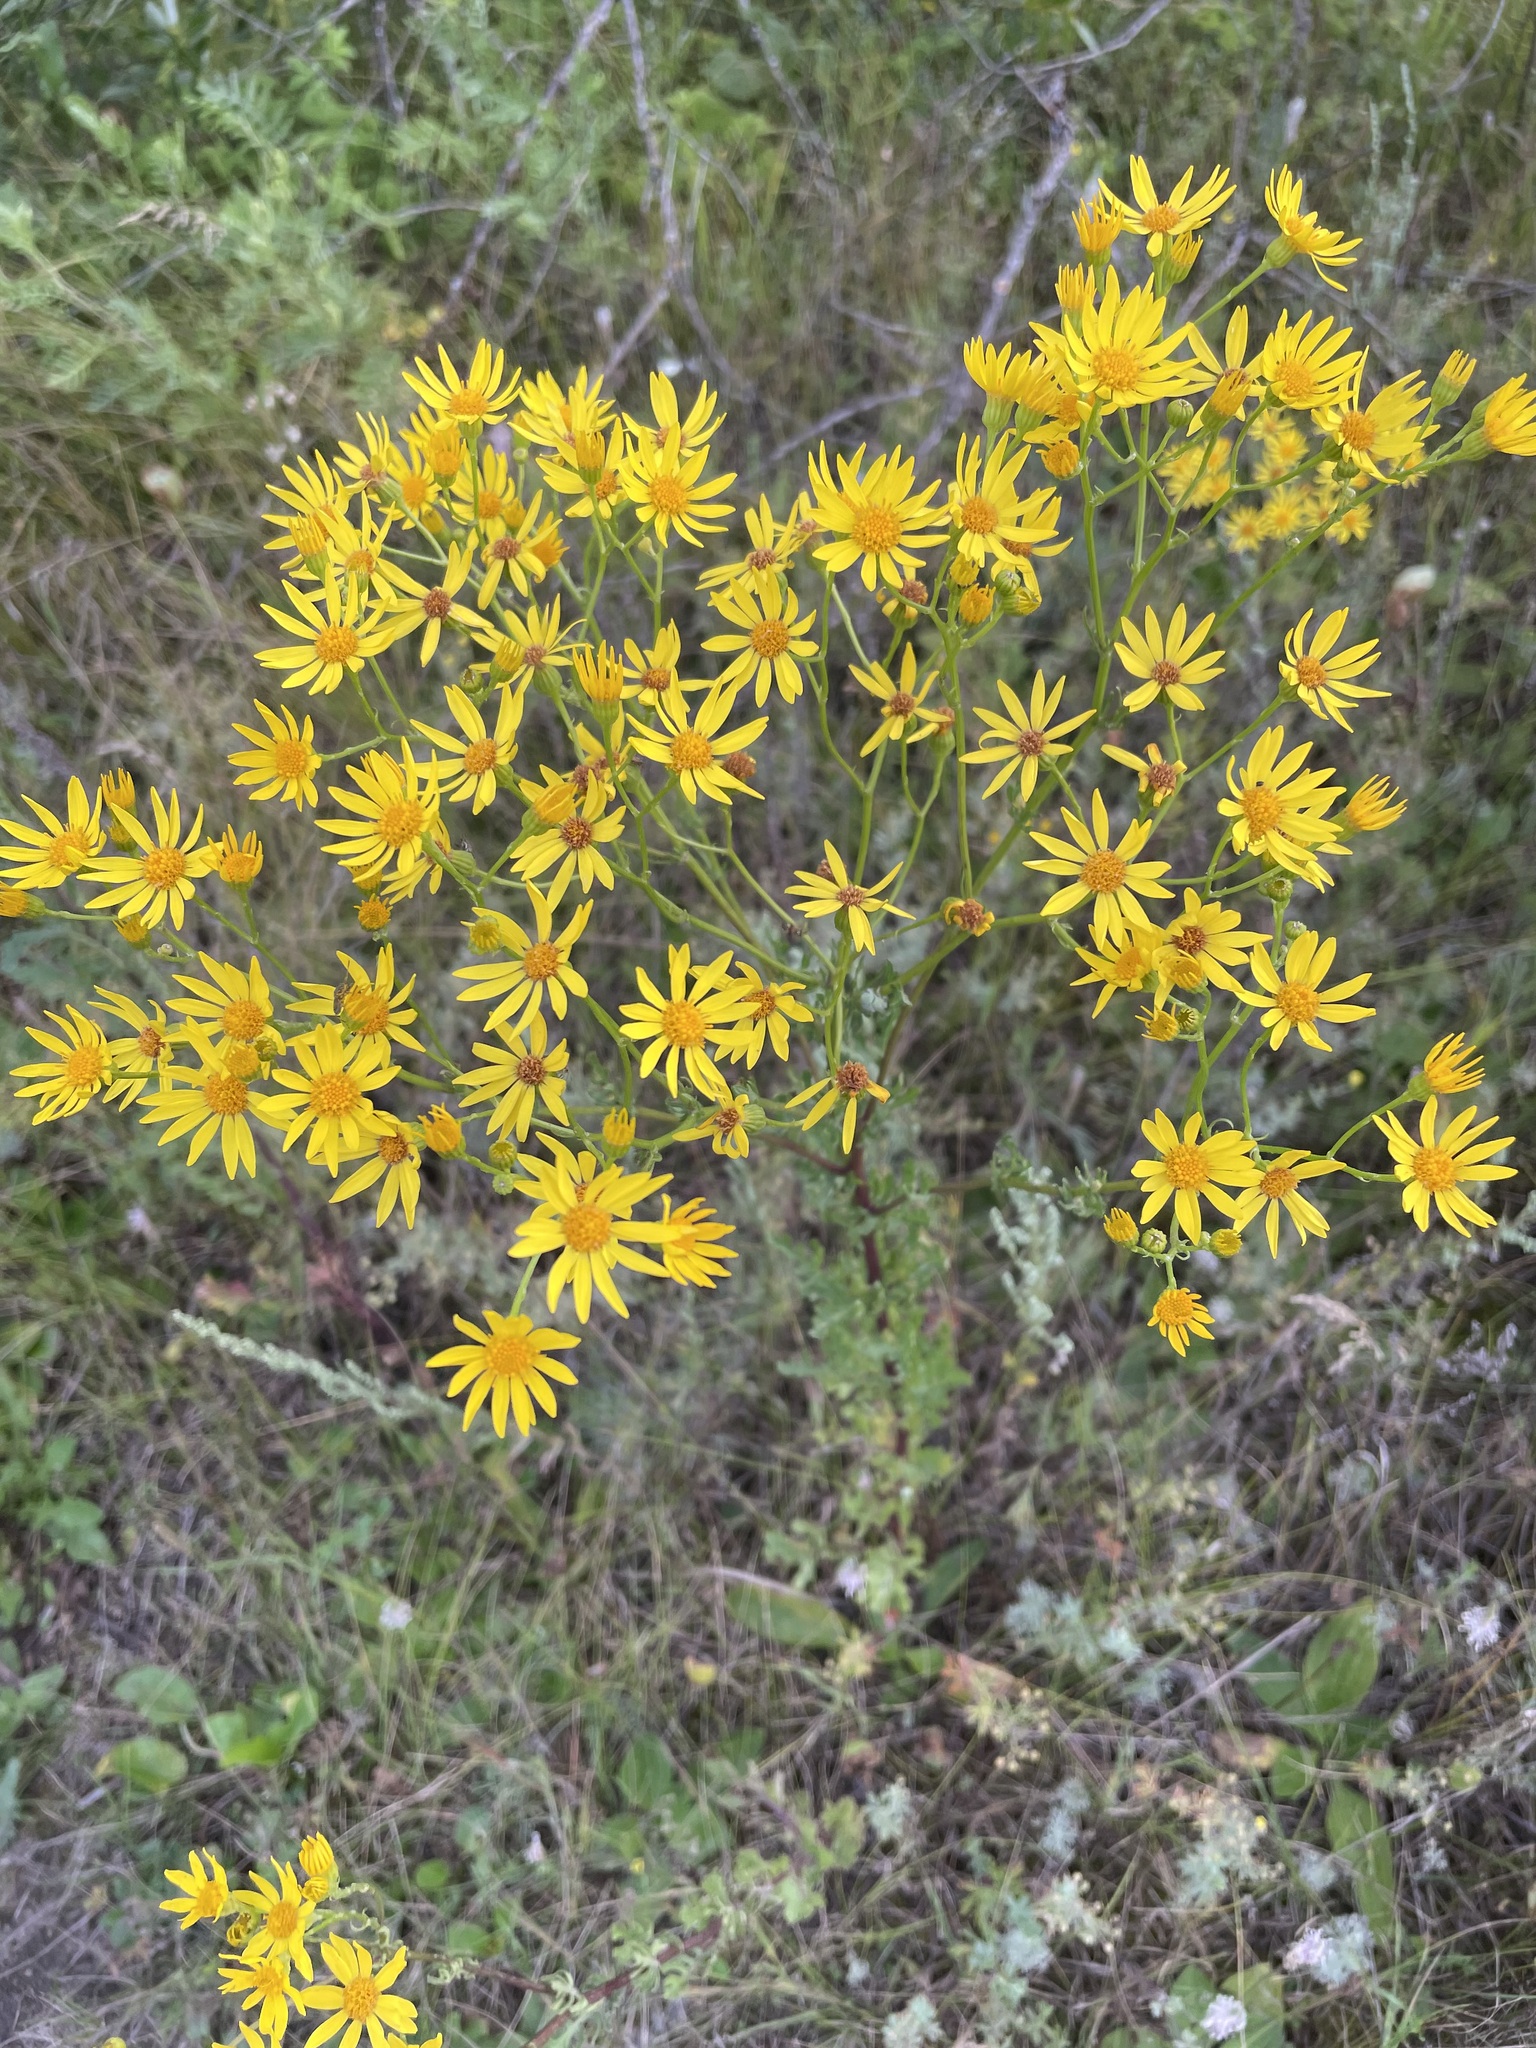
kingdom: Plantae
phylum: Tracheophyta
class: Magnoliopsida
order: Asterales
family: Asteraceae
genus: Jacobaea
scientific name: Jacobaea vulgaris
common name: Stinking willie
